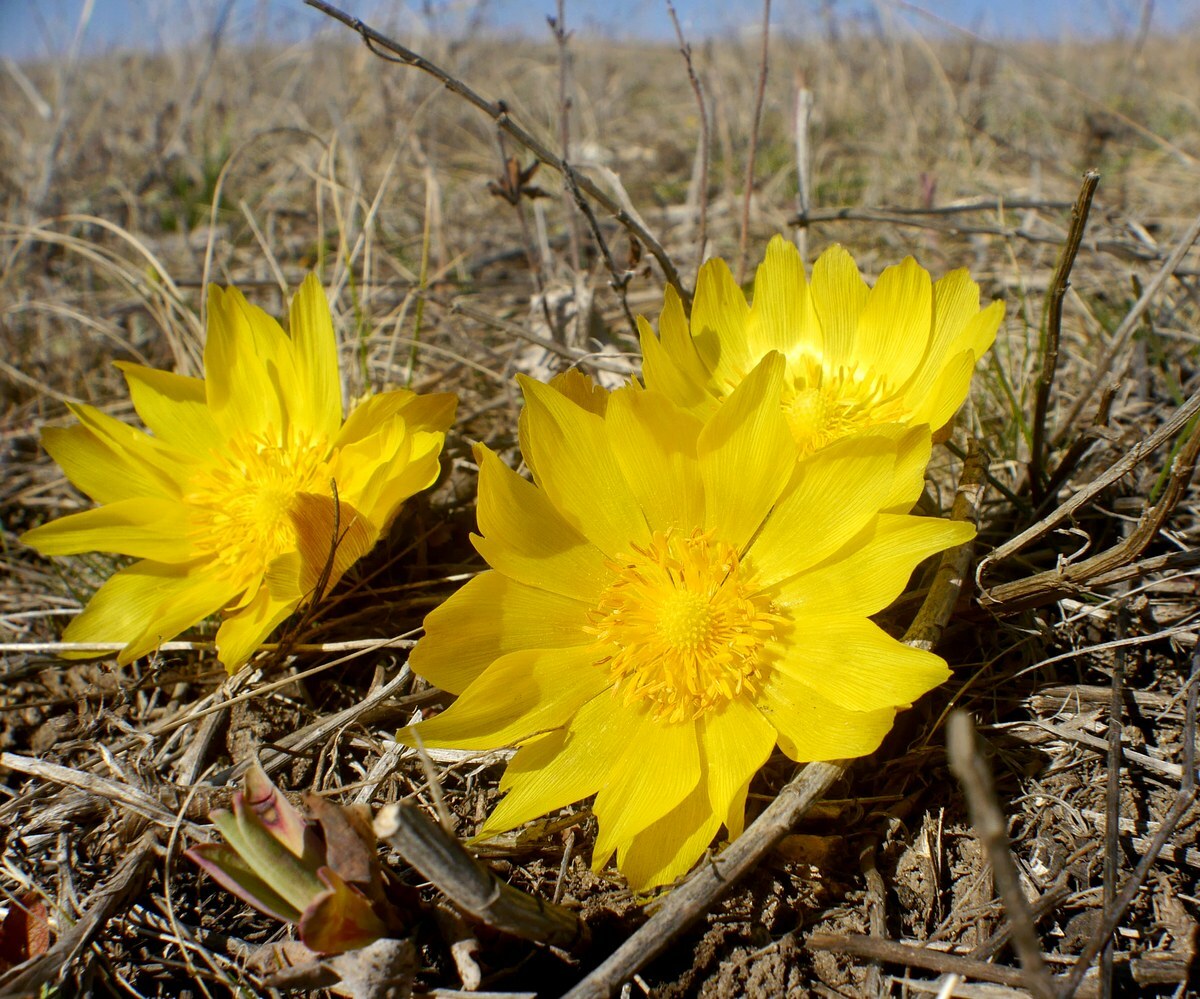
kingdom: Plantae
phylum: Tracheophyta
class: Magnoliopsida
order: Ranunculales
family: Ranunculaceae
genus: Adonis
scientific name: Adonis vernalis
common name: Yellow pheasants-eye
